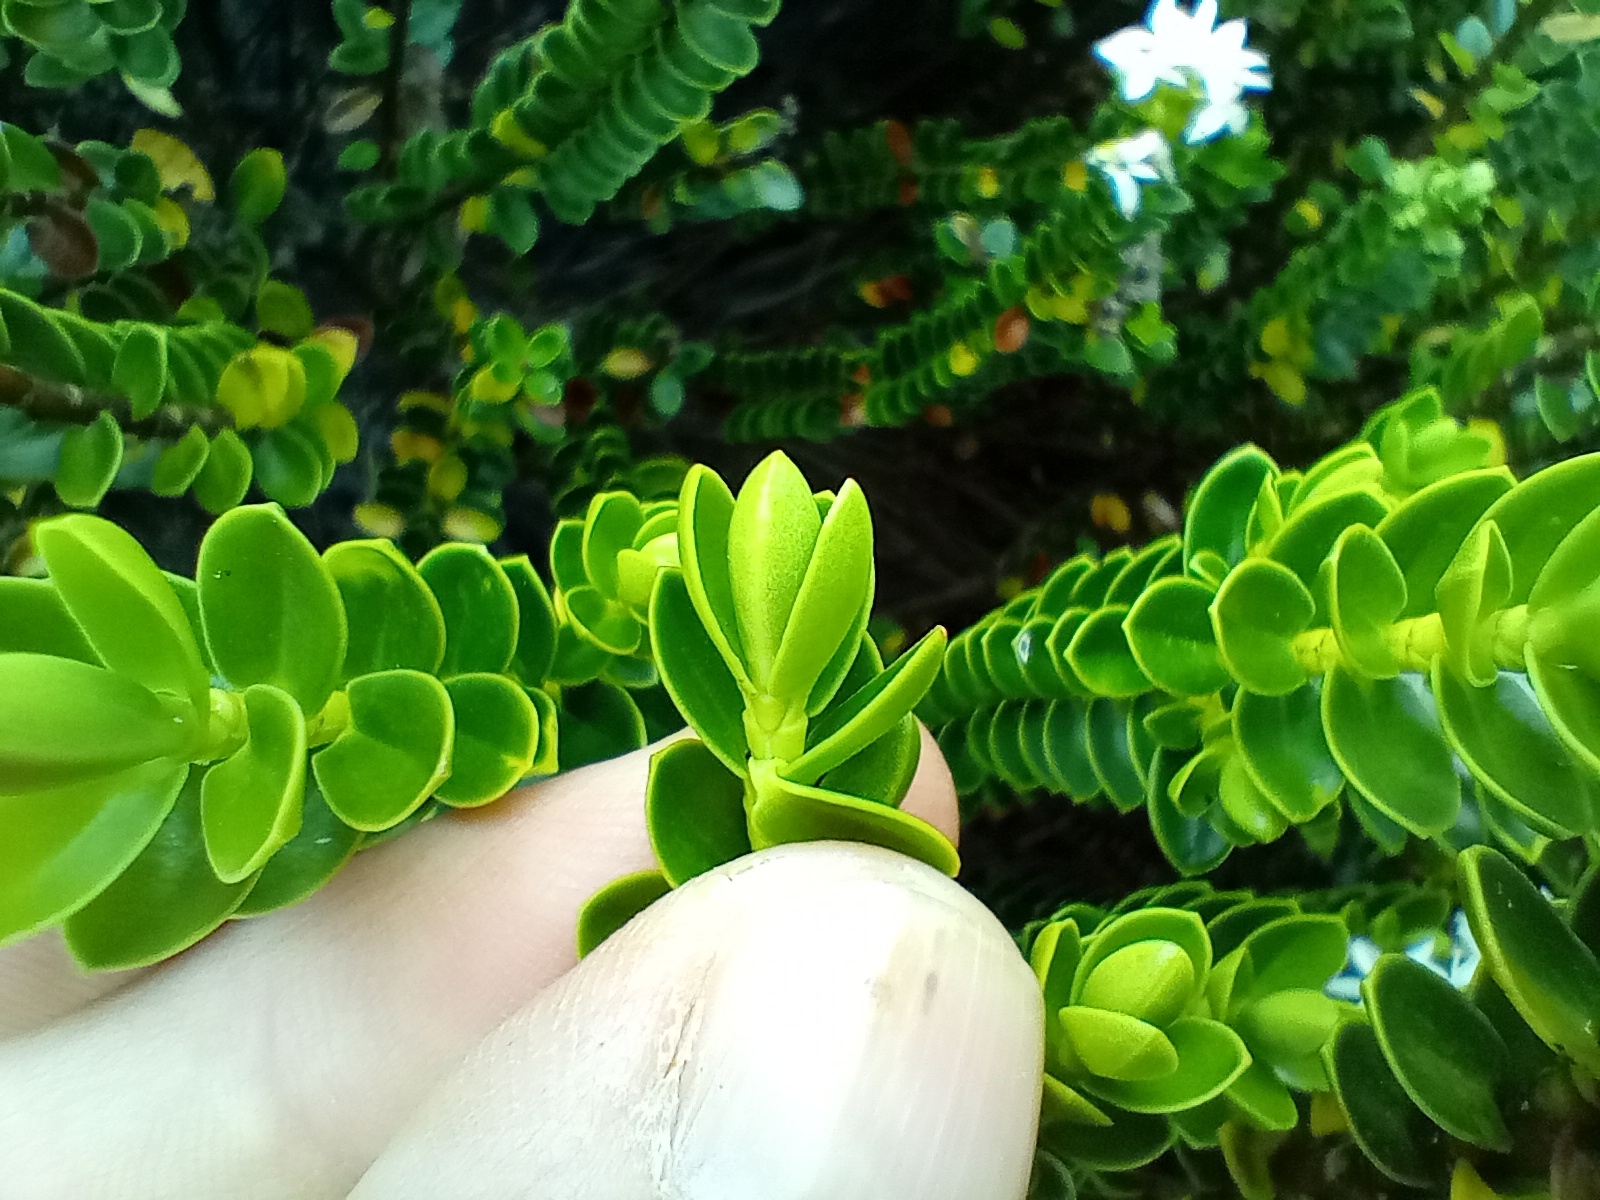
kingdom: Plantae
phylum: Tracheophyta
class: Magnoliopsida
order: Lamiales
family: Plantaginaceae
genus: Veronica
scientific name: Veronica odora
